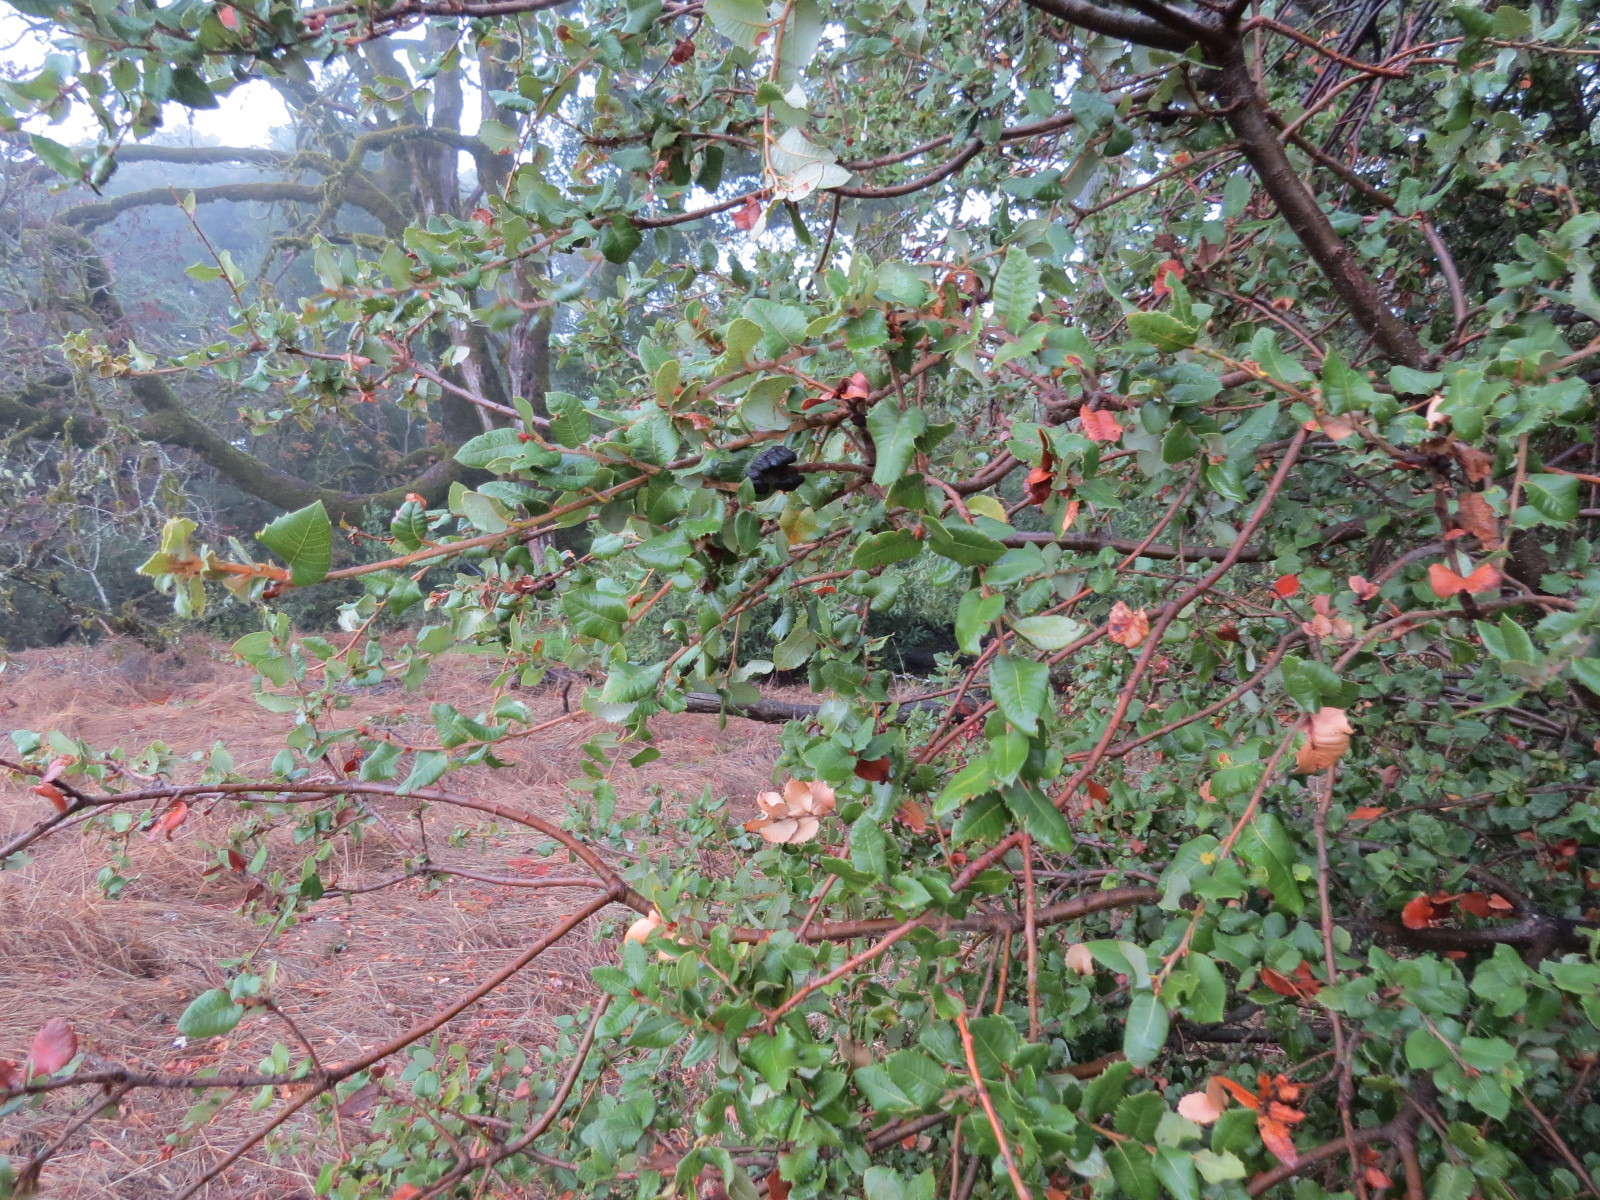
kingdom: Animalia
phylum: Arthropoda
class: Insecta
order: Hymenoptera
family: Cynipidae
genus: Disholandricus
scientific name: Disholandricus
